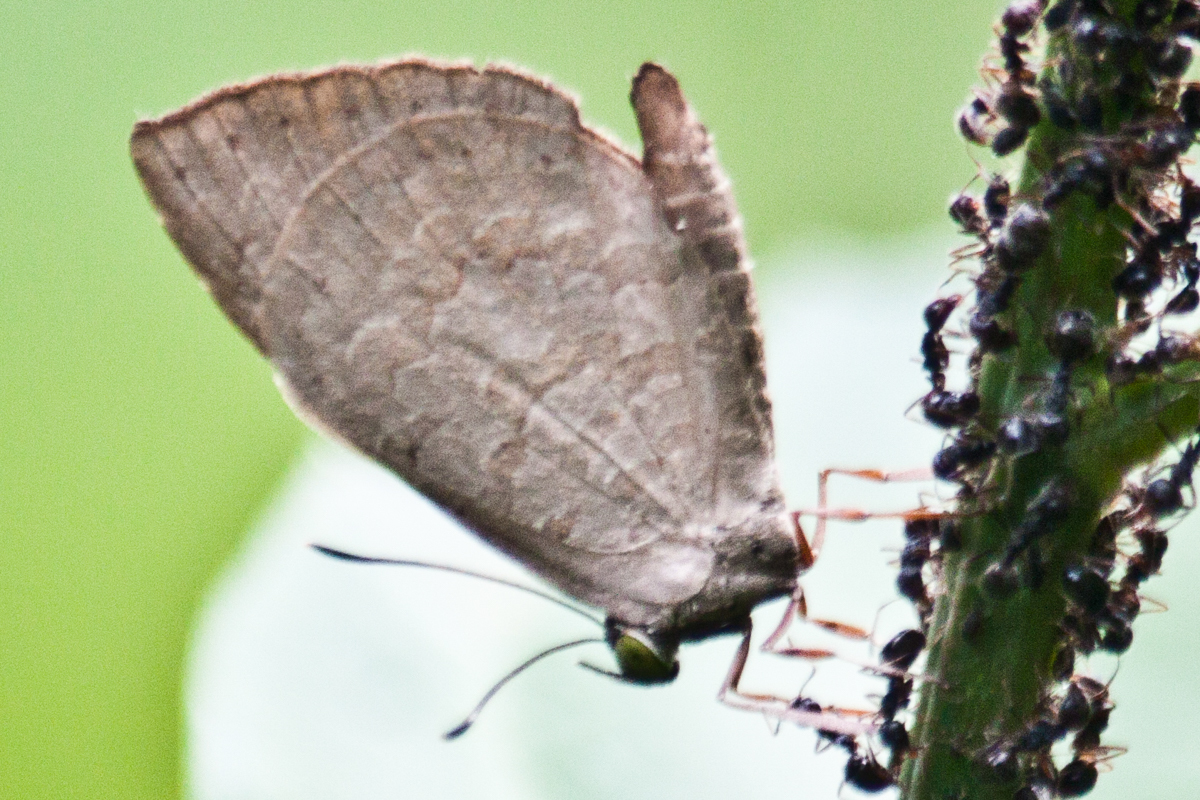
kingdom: Animalia
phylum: Arthropoda
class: Insecta
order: Lepidoptera
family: Lycaenidae
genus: Miletus
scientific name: Miletus chinensis
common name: Common brownie
